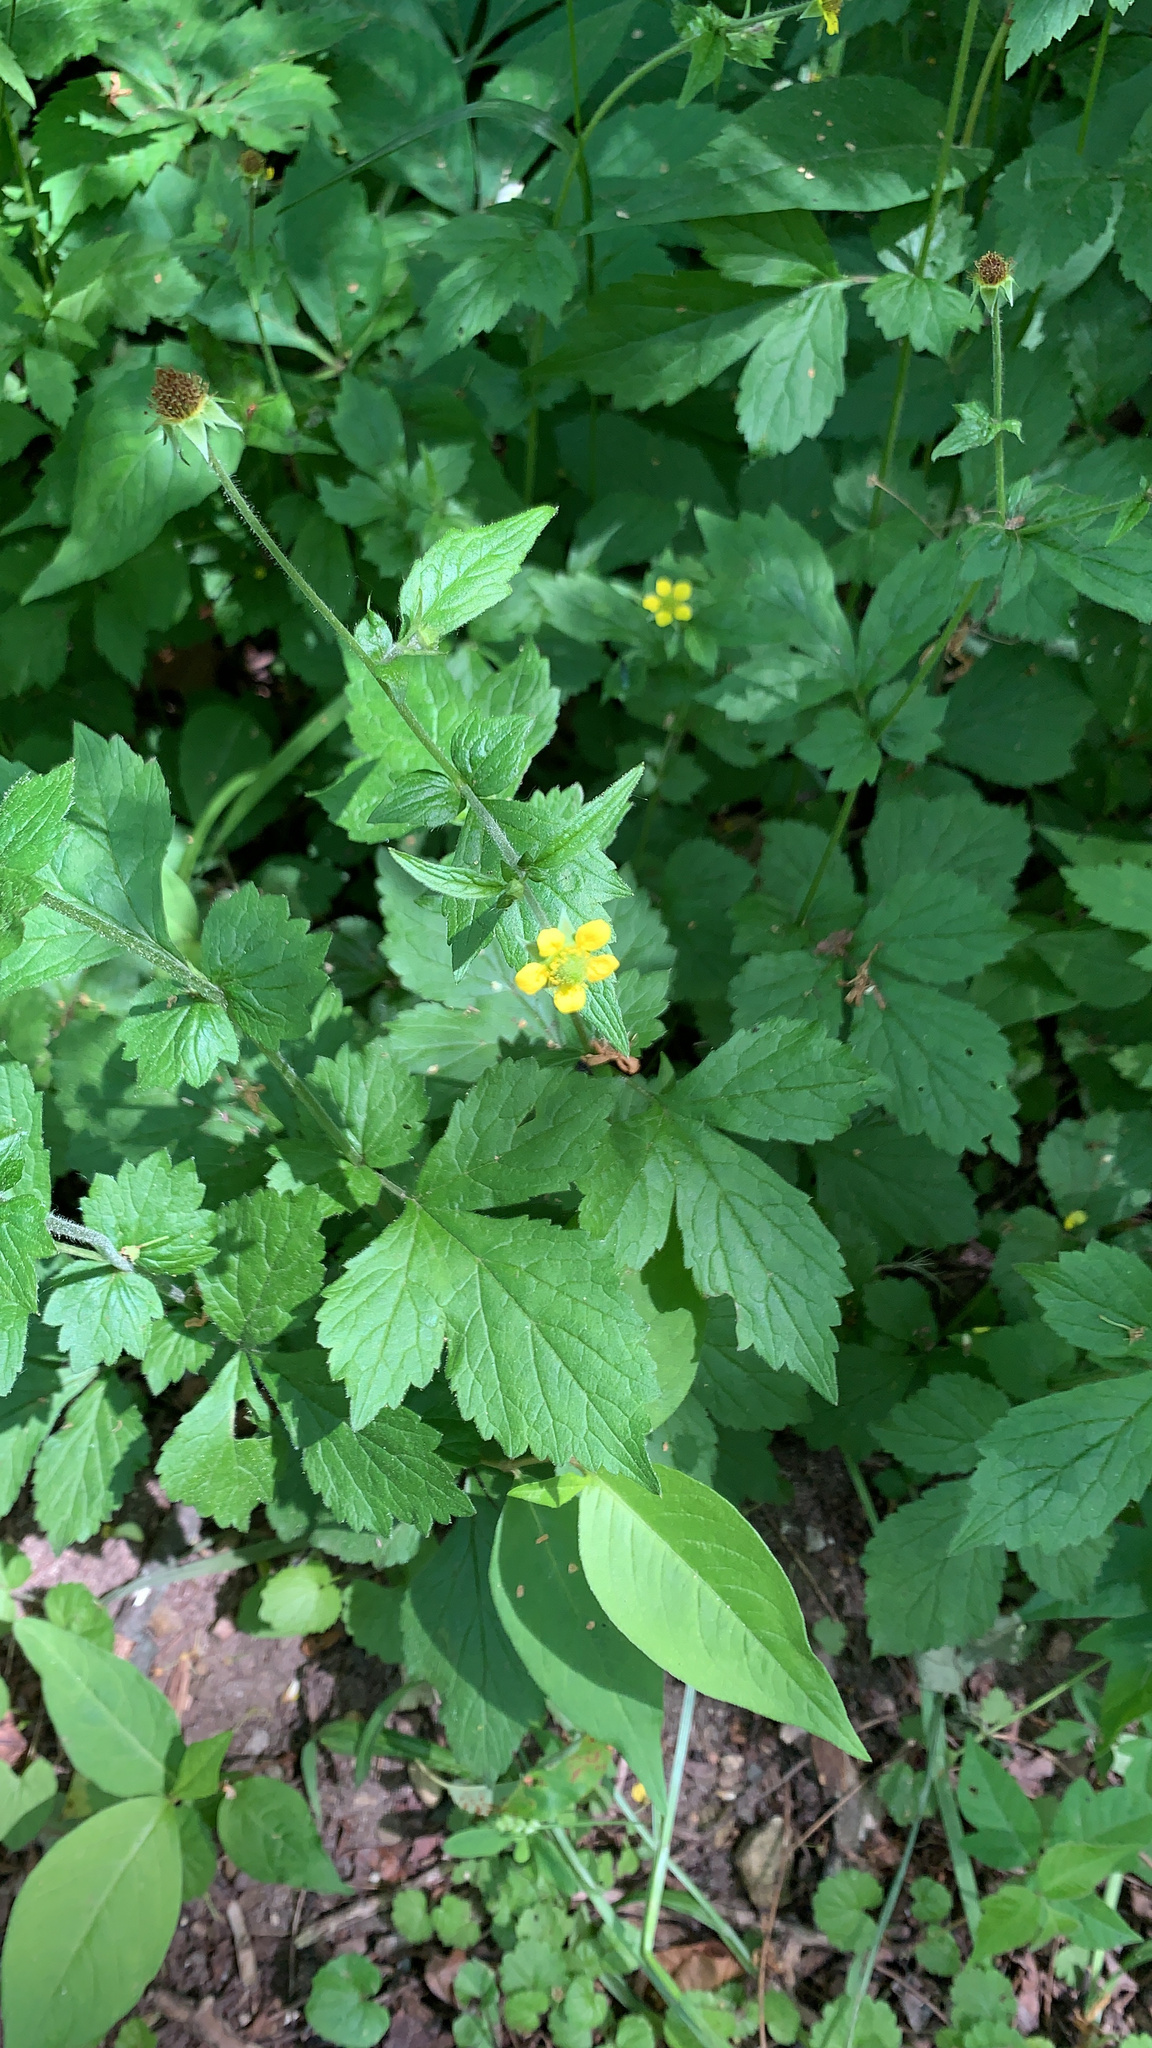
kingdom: Plantae
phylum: Tracheophyta
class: Magnoliopsida
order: Rosales
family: Rosaceae
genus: Geum
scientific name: Geum urbanum
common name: Wood avens
